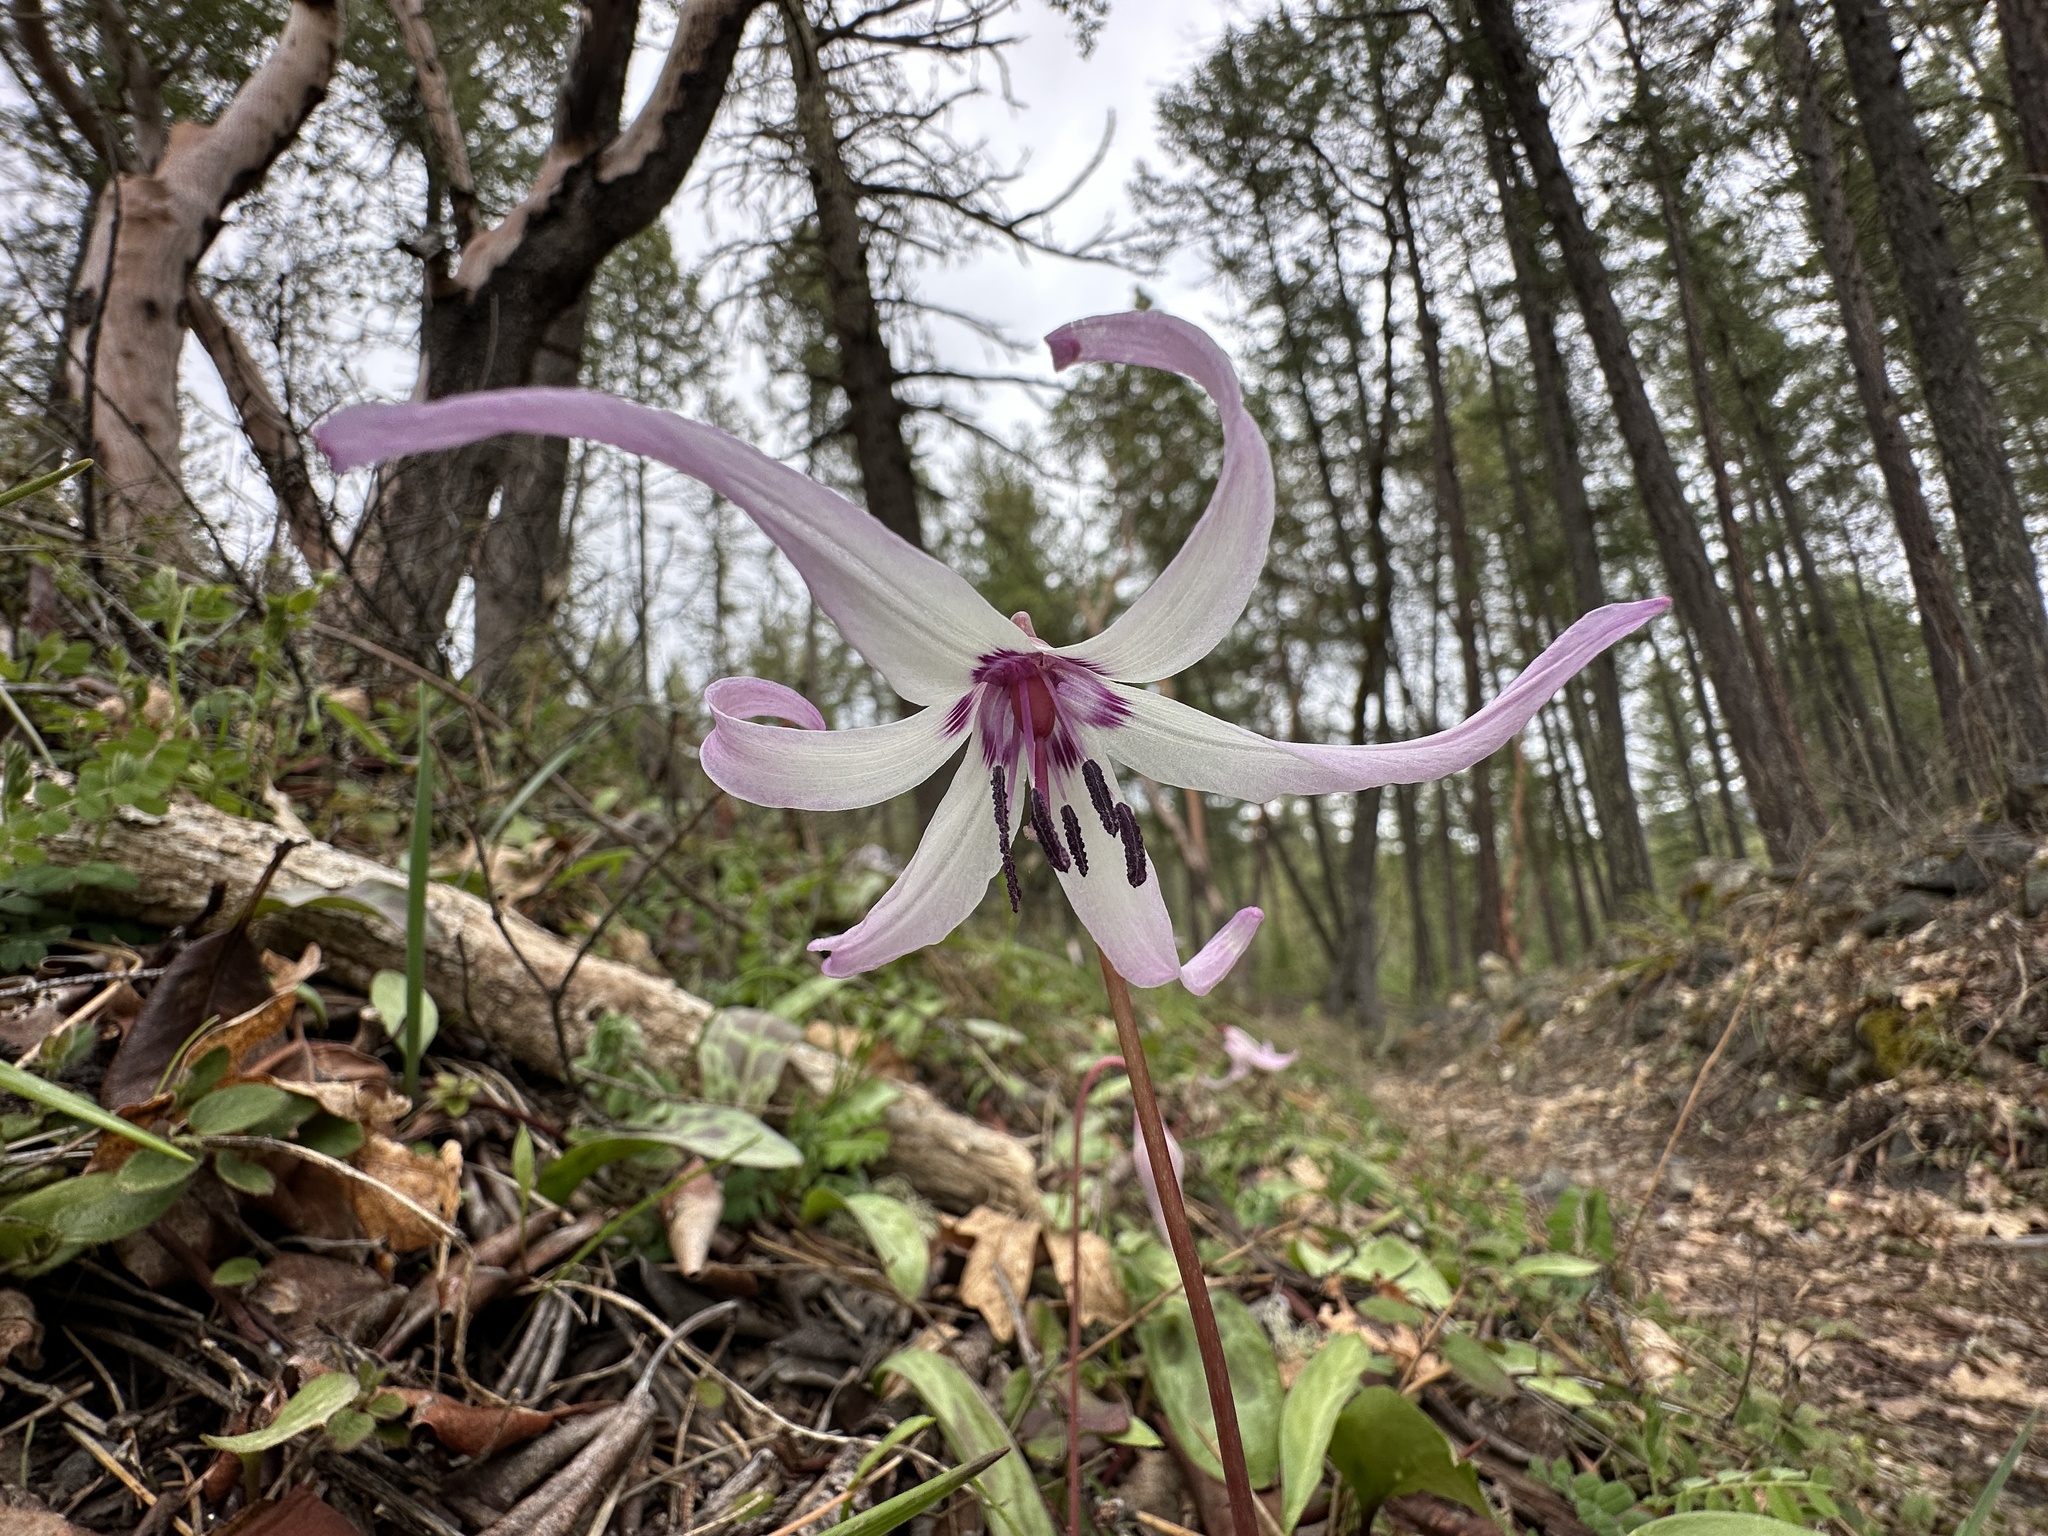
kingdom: Plantae
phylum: Tracheophyta
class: Liliopsida
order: Liliales
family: Liliaceae
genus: Erythronium
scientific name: Erythronium hendersonii
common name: Henderson's fawn-lily
